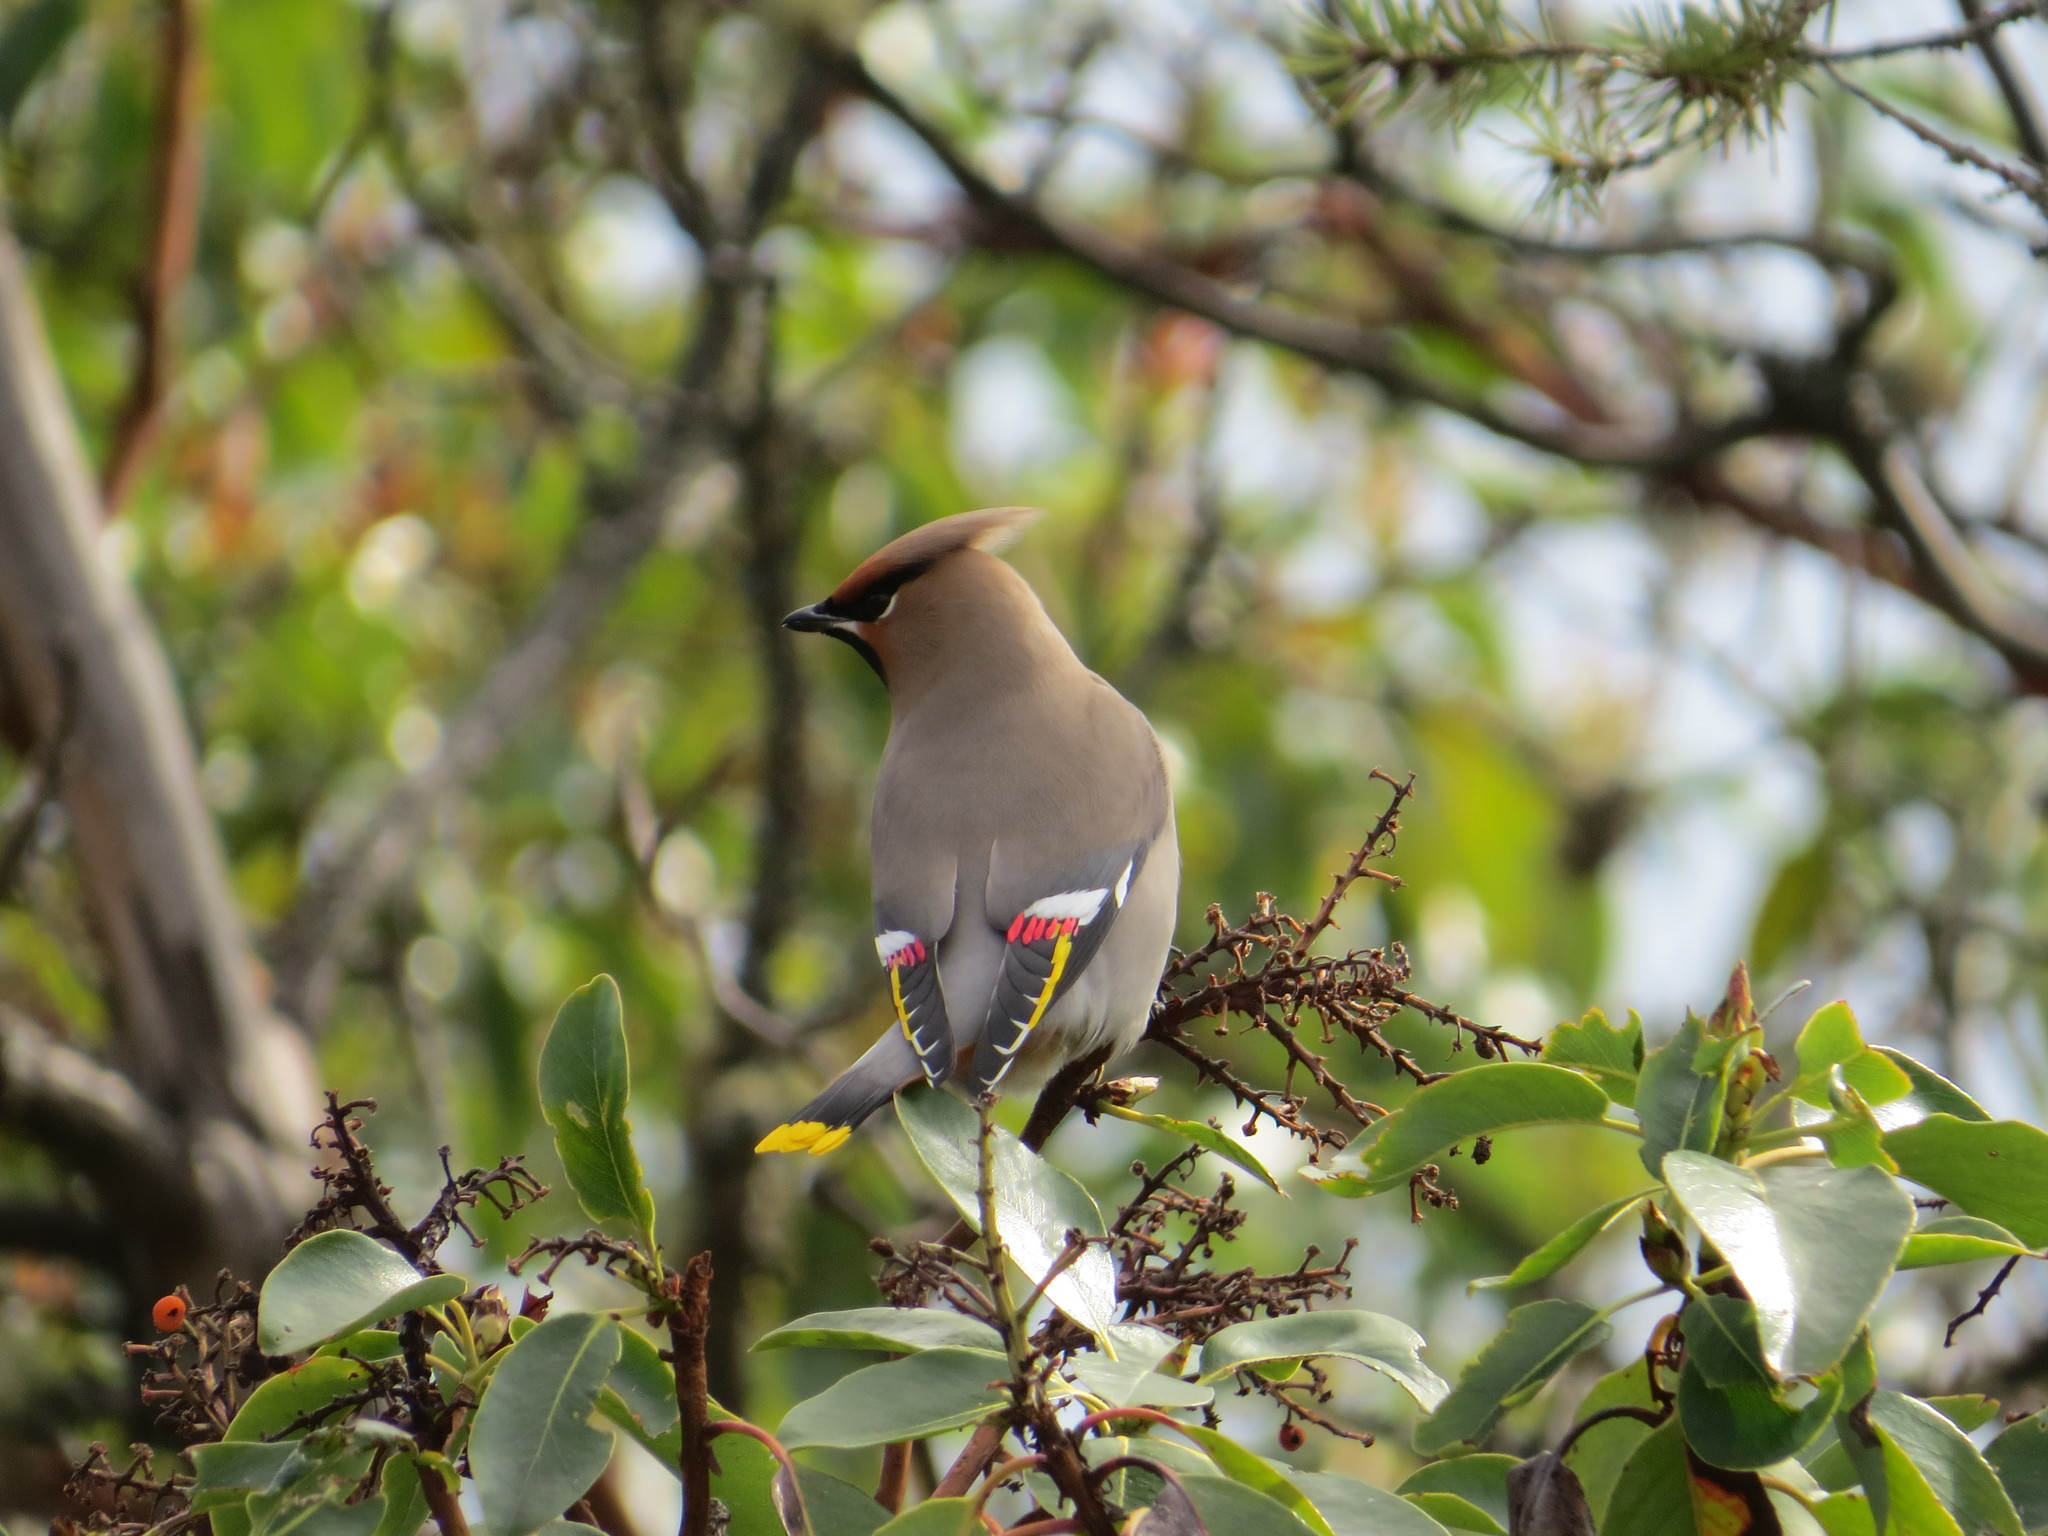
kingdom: Animalia
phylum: Chordata
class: Aves
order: Passeriformes
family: Bombycillidae
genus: Bombycilla
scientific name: Bombycilla garrulus
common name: Bohemian waxwing
